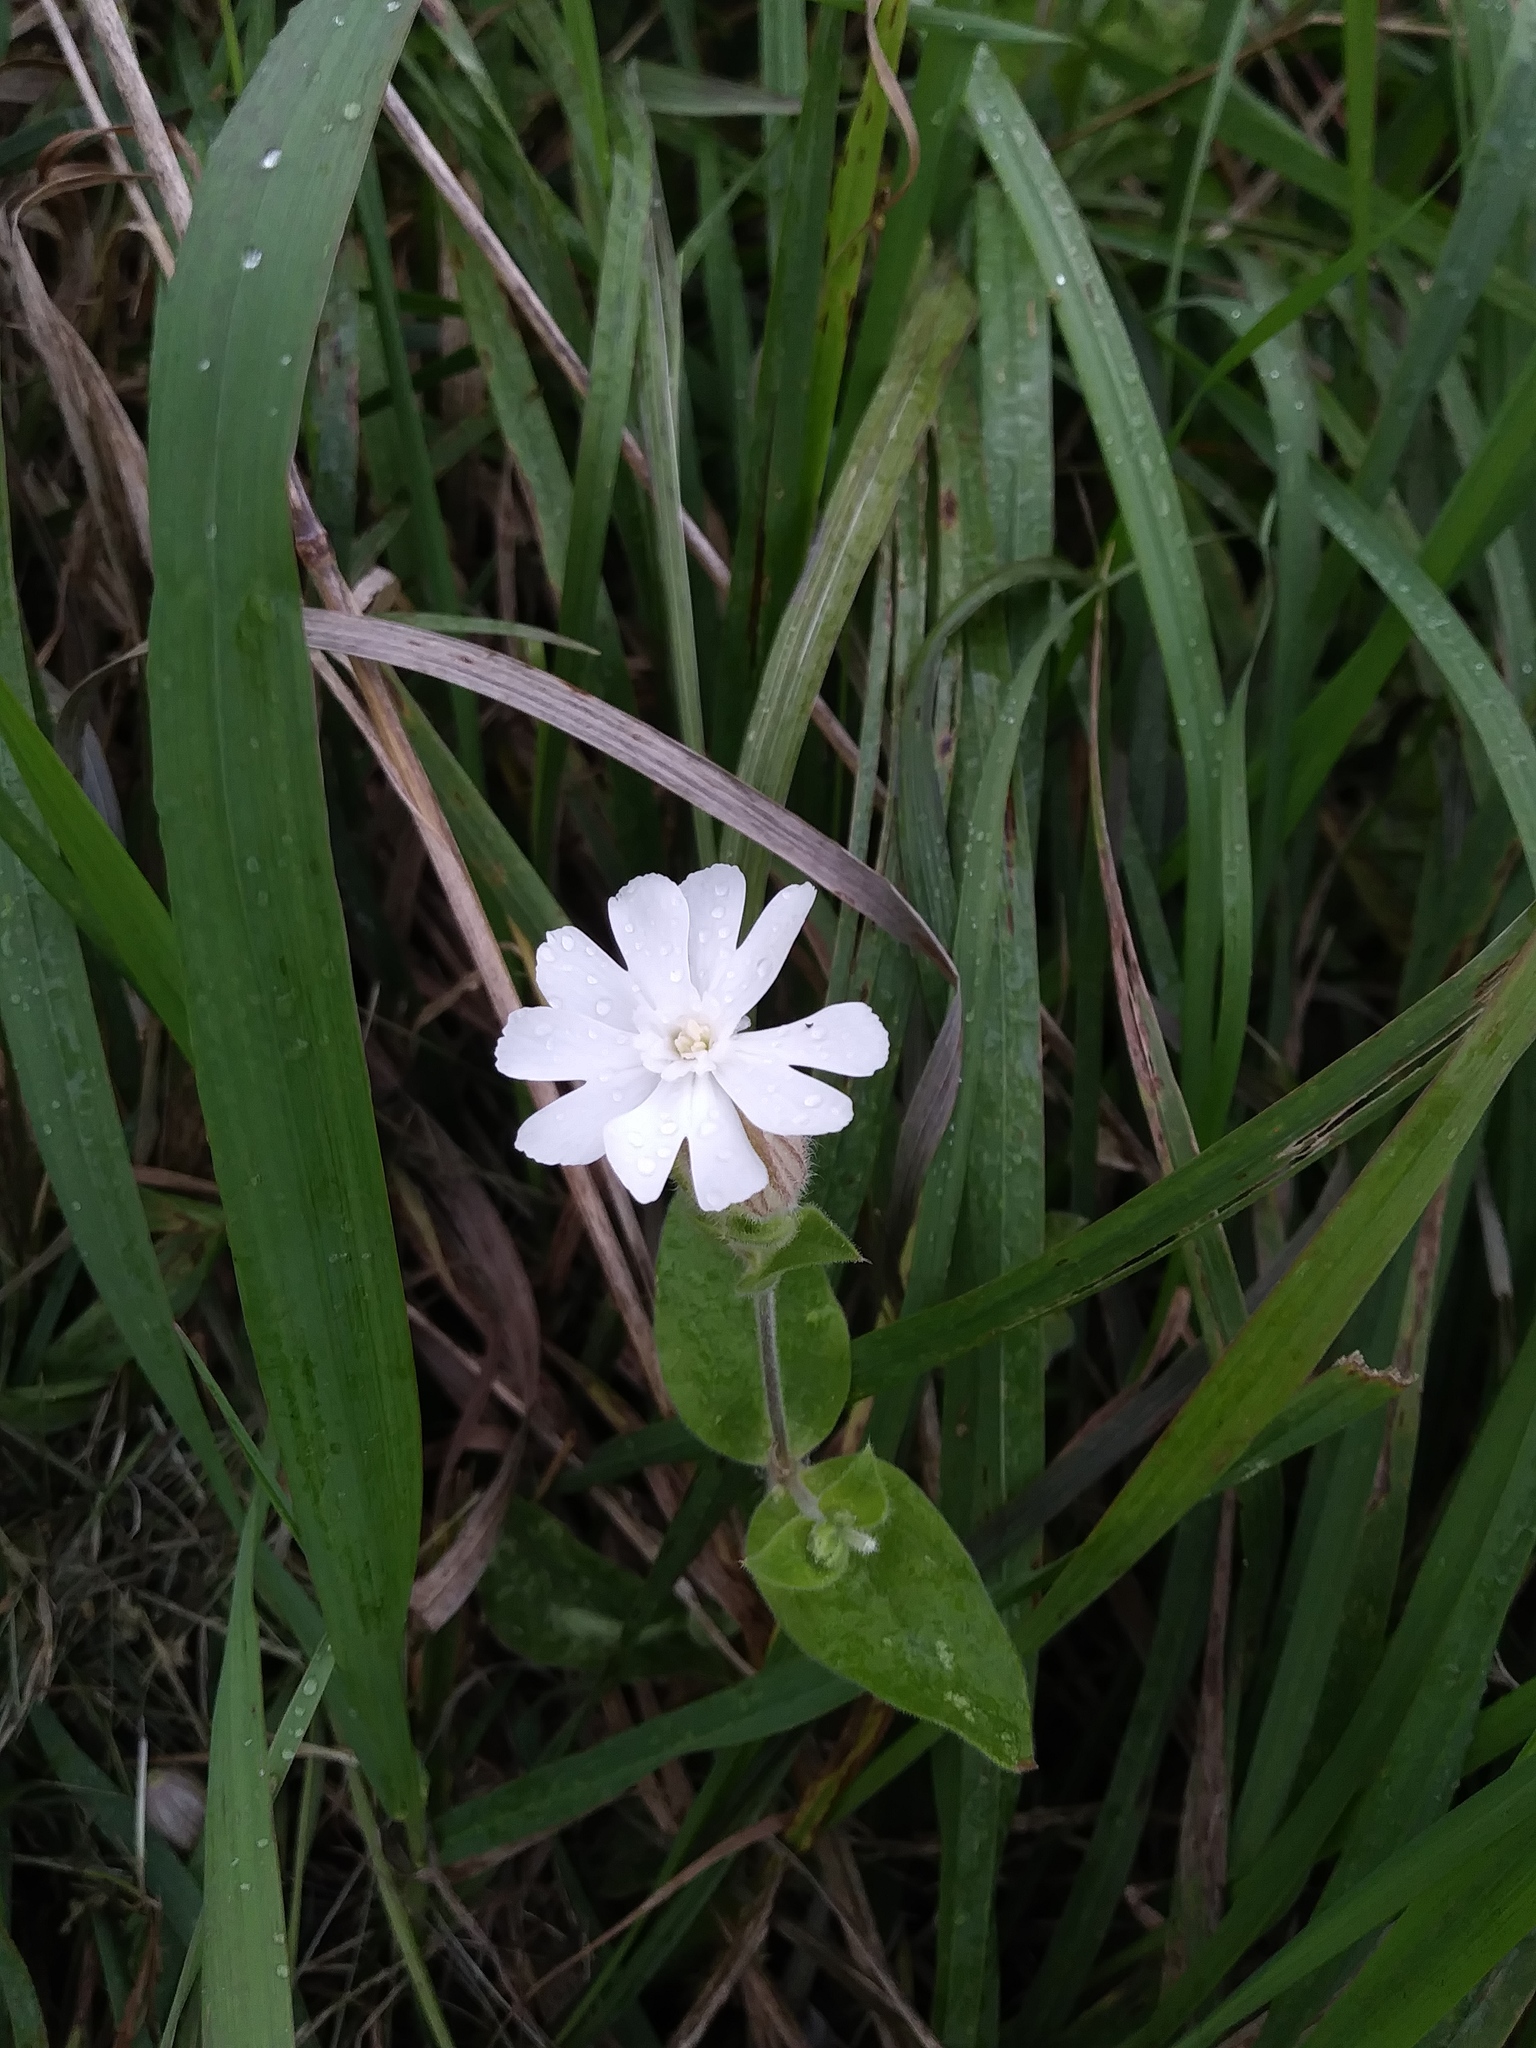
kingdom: Plantae
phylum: Tracheophyta
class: Magnoliopsida
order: Caryophyllales
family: Caryophyllaceae
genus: Silene
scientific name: Silene latifolia
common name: White campion
